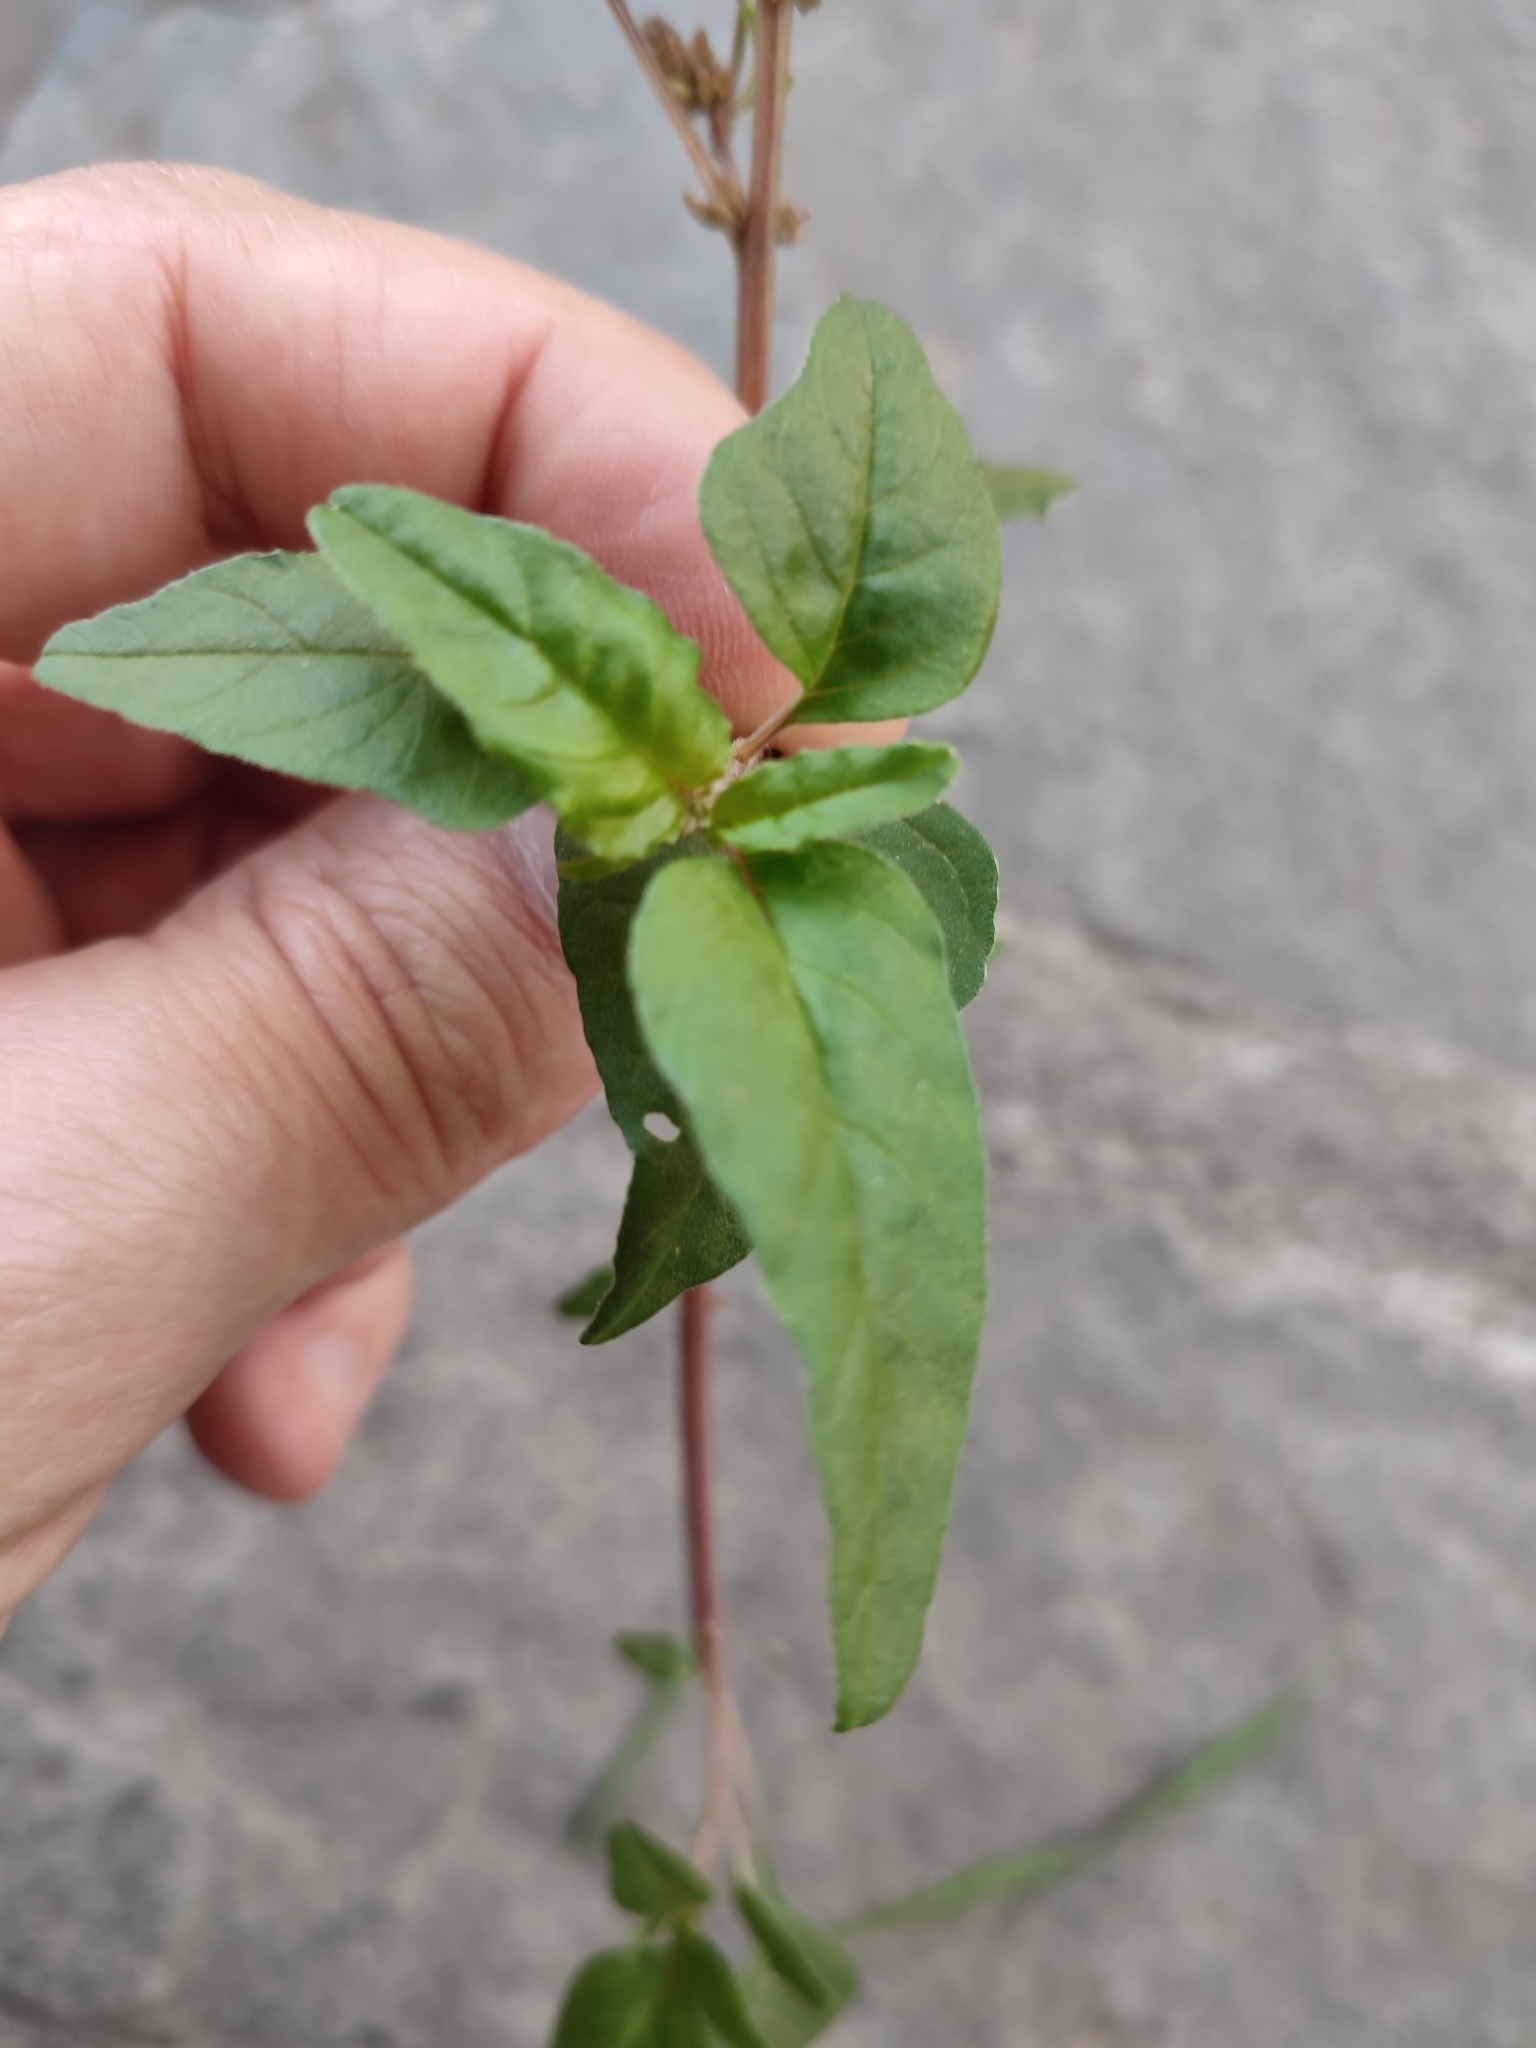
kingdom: Plantae
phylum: Tracheophyta
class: Magnoliopsida
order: Caryophyllales
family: Amaranthaceae
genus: Amaranthus
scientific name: Amaranthus deflexus
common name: Perennial pigweed
